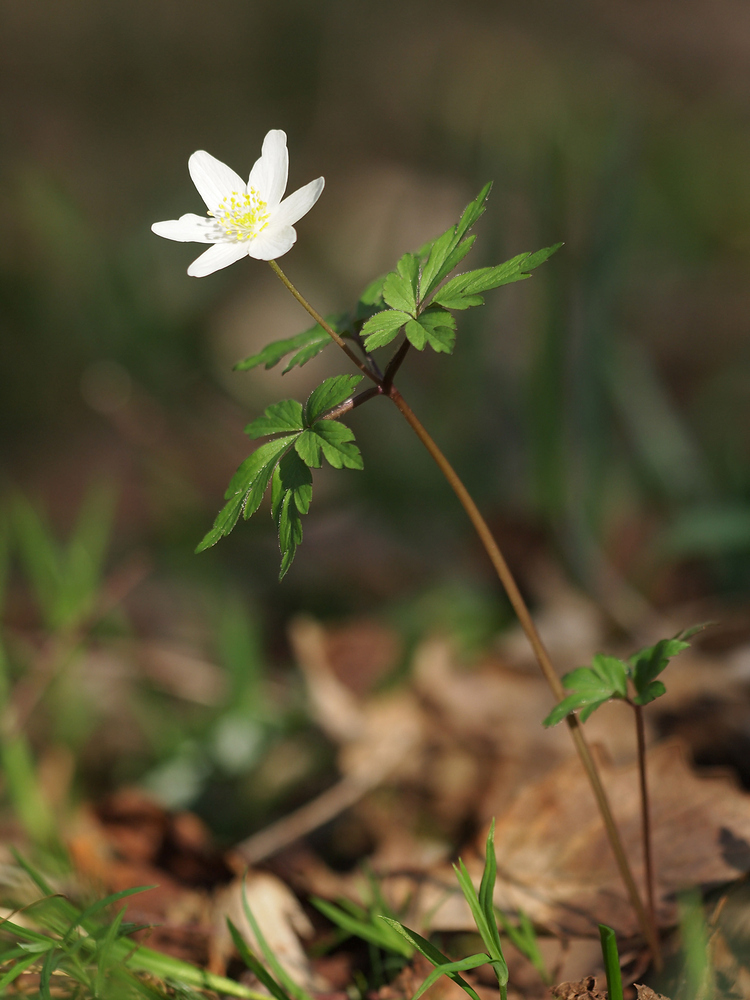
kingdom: Plantae
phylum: Tracheophyta
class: Magnoliopsida
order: Ranunculales
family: Ranunculaceae
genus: Anemone
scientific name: Anemone nemorosa
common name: Wood anemone
